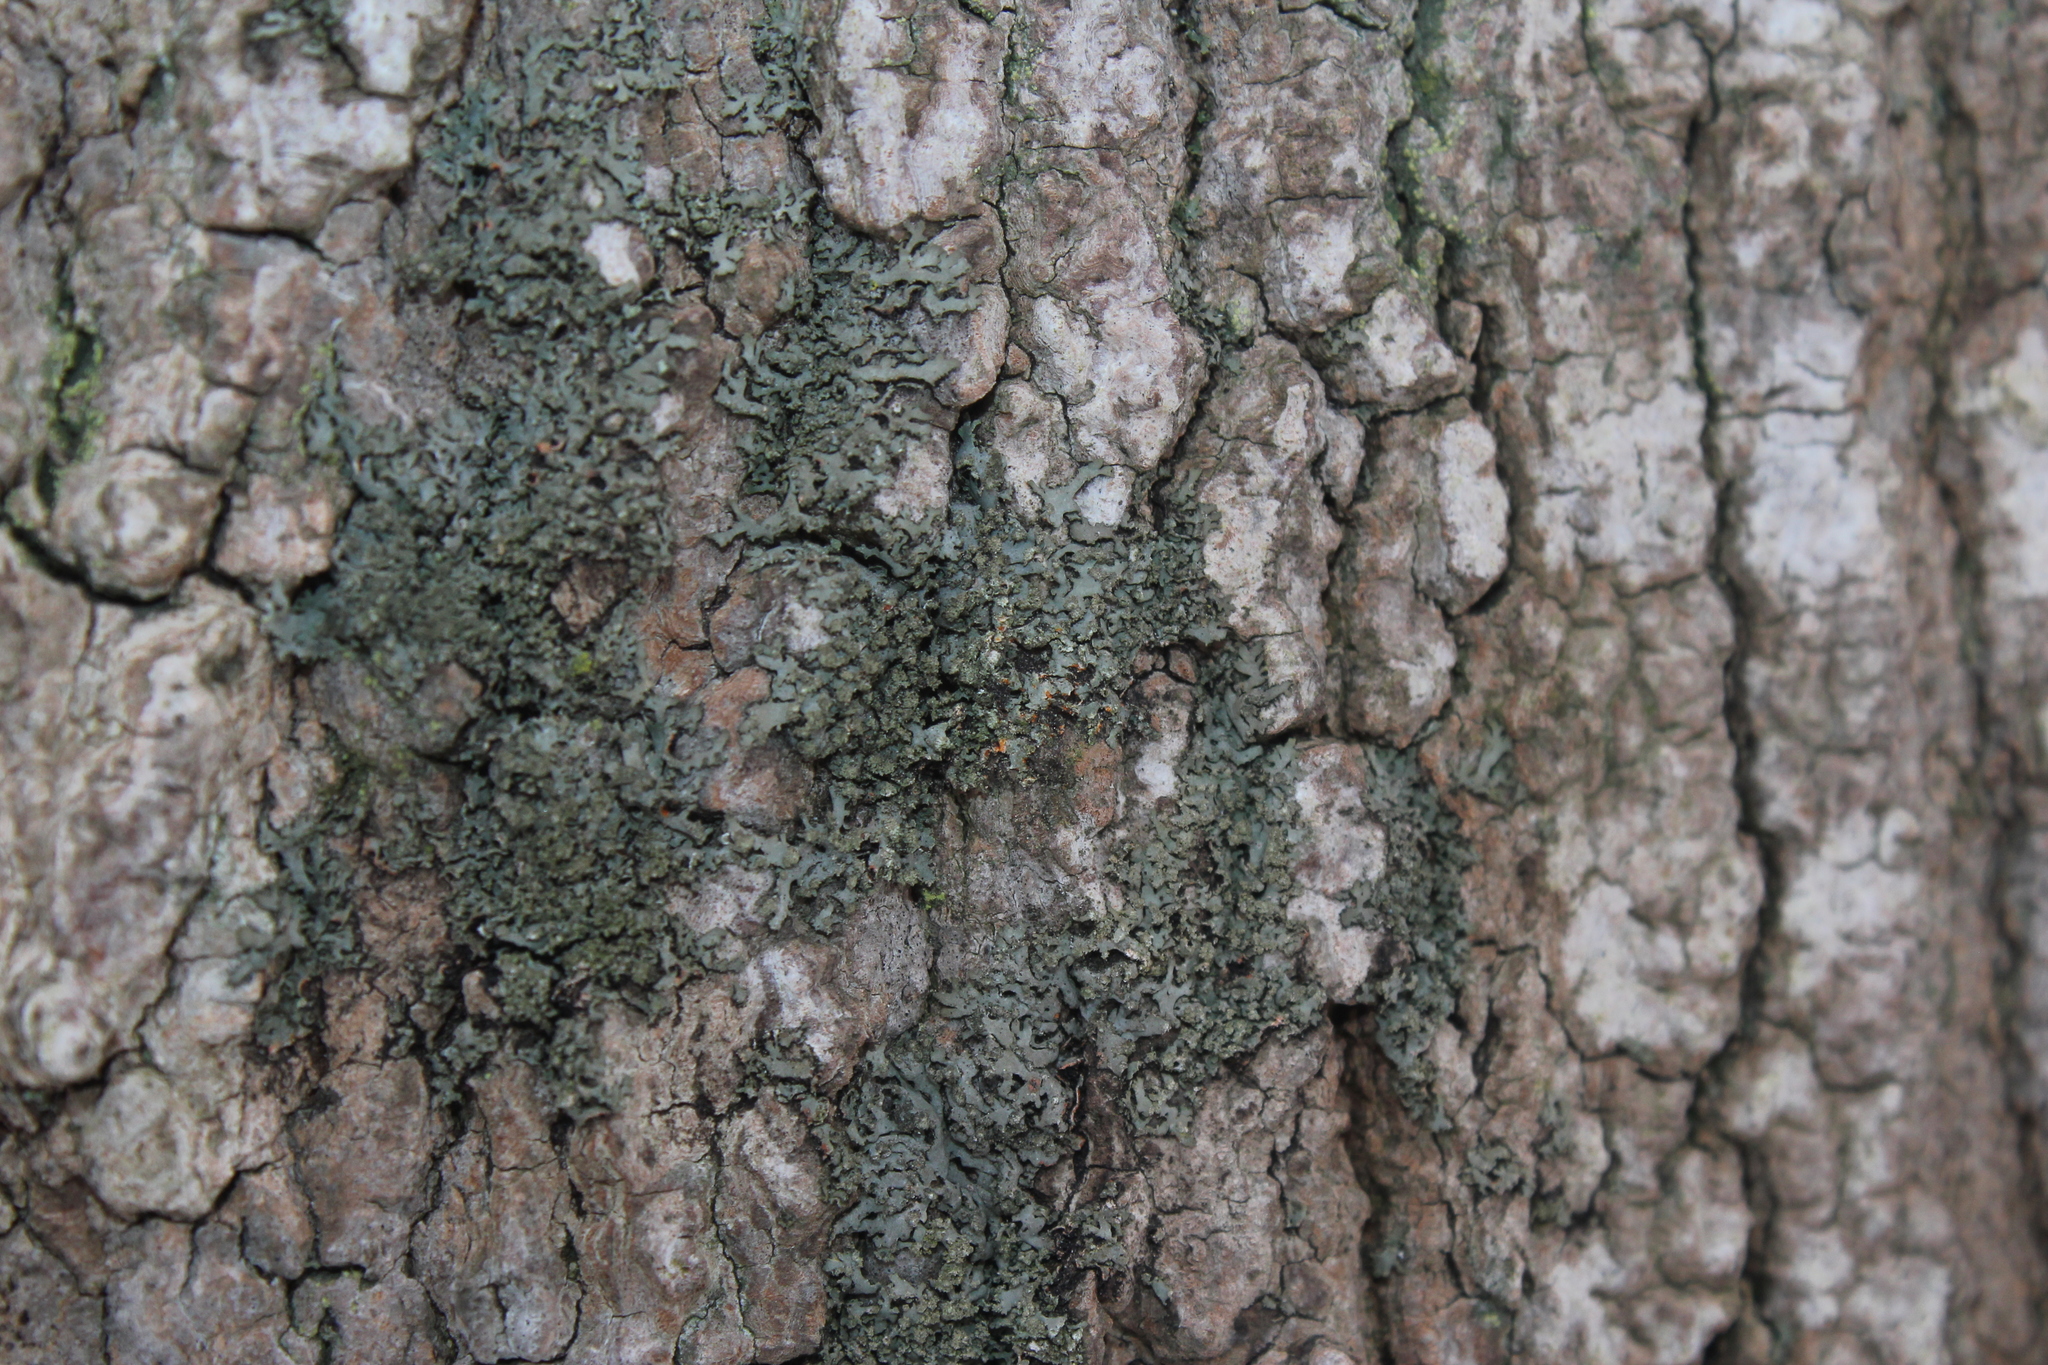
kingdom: Fungi
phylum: Ascomycota
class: Lecanoromycetes
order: Caliciales
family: Physciaceae
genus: Phaeophyscia
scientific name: Phaeophyscia rubropulchra
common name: Orange-cored shadow lichen
